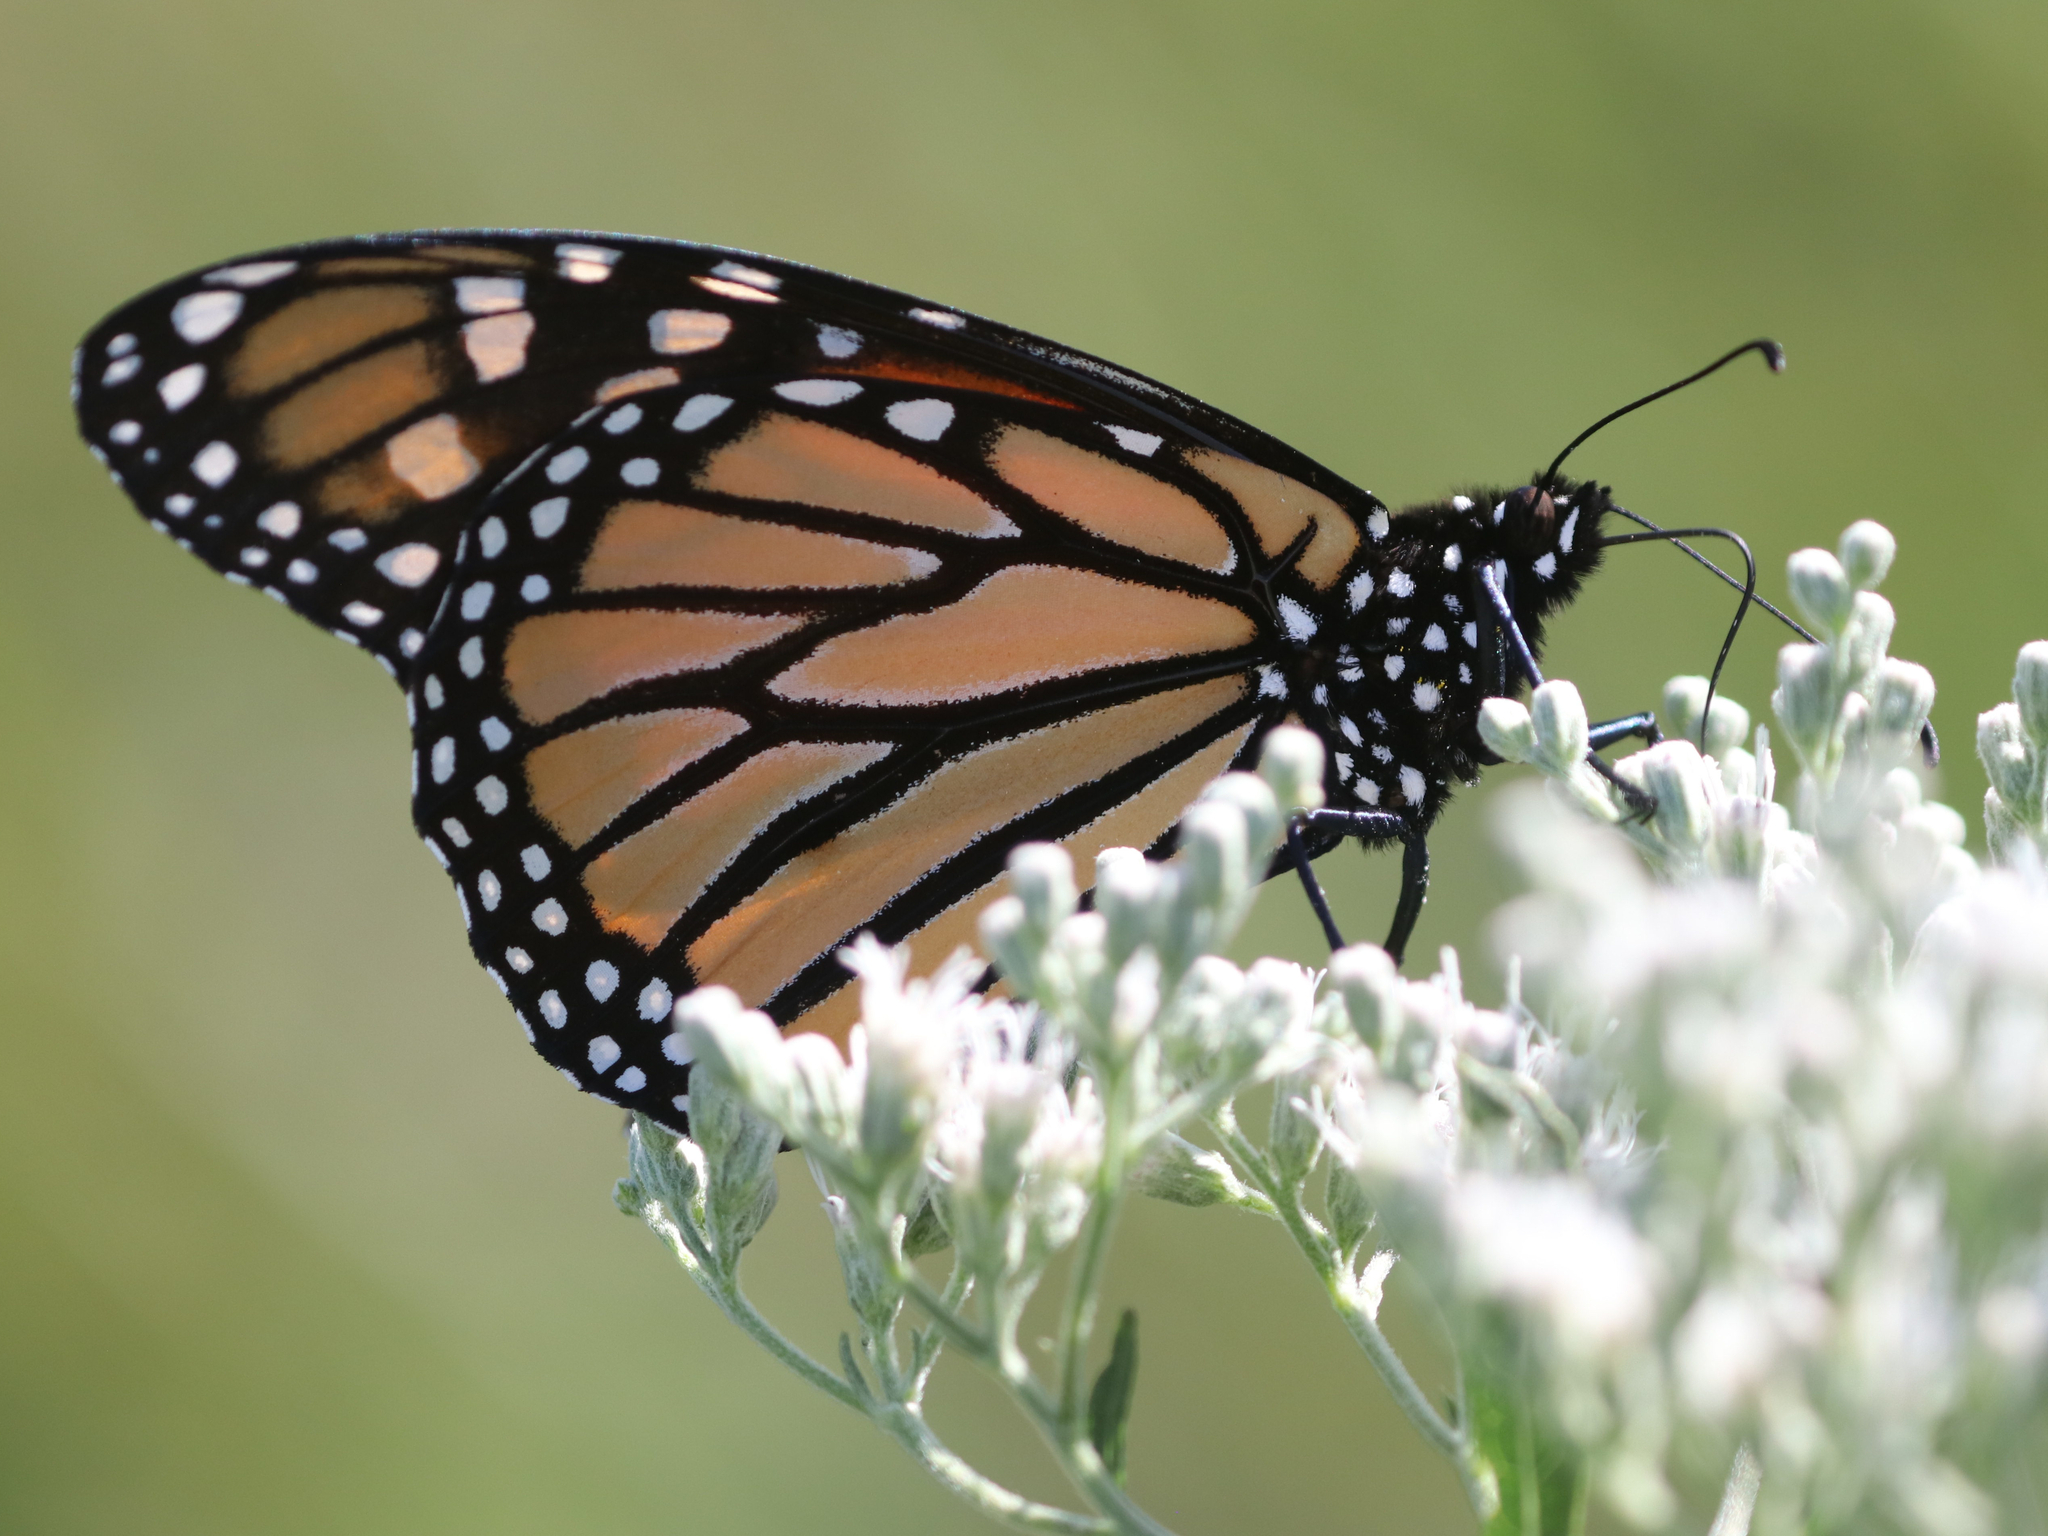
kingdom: Animalia
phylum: Arthropoda
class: Insecta
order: Lepidoptera
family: Nymphalidae
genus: Danaus
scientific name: Danaus plexippus
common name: Monarch
